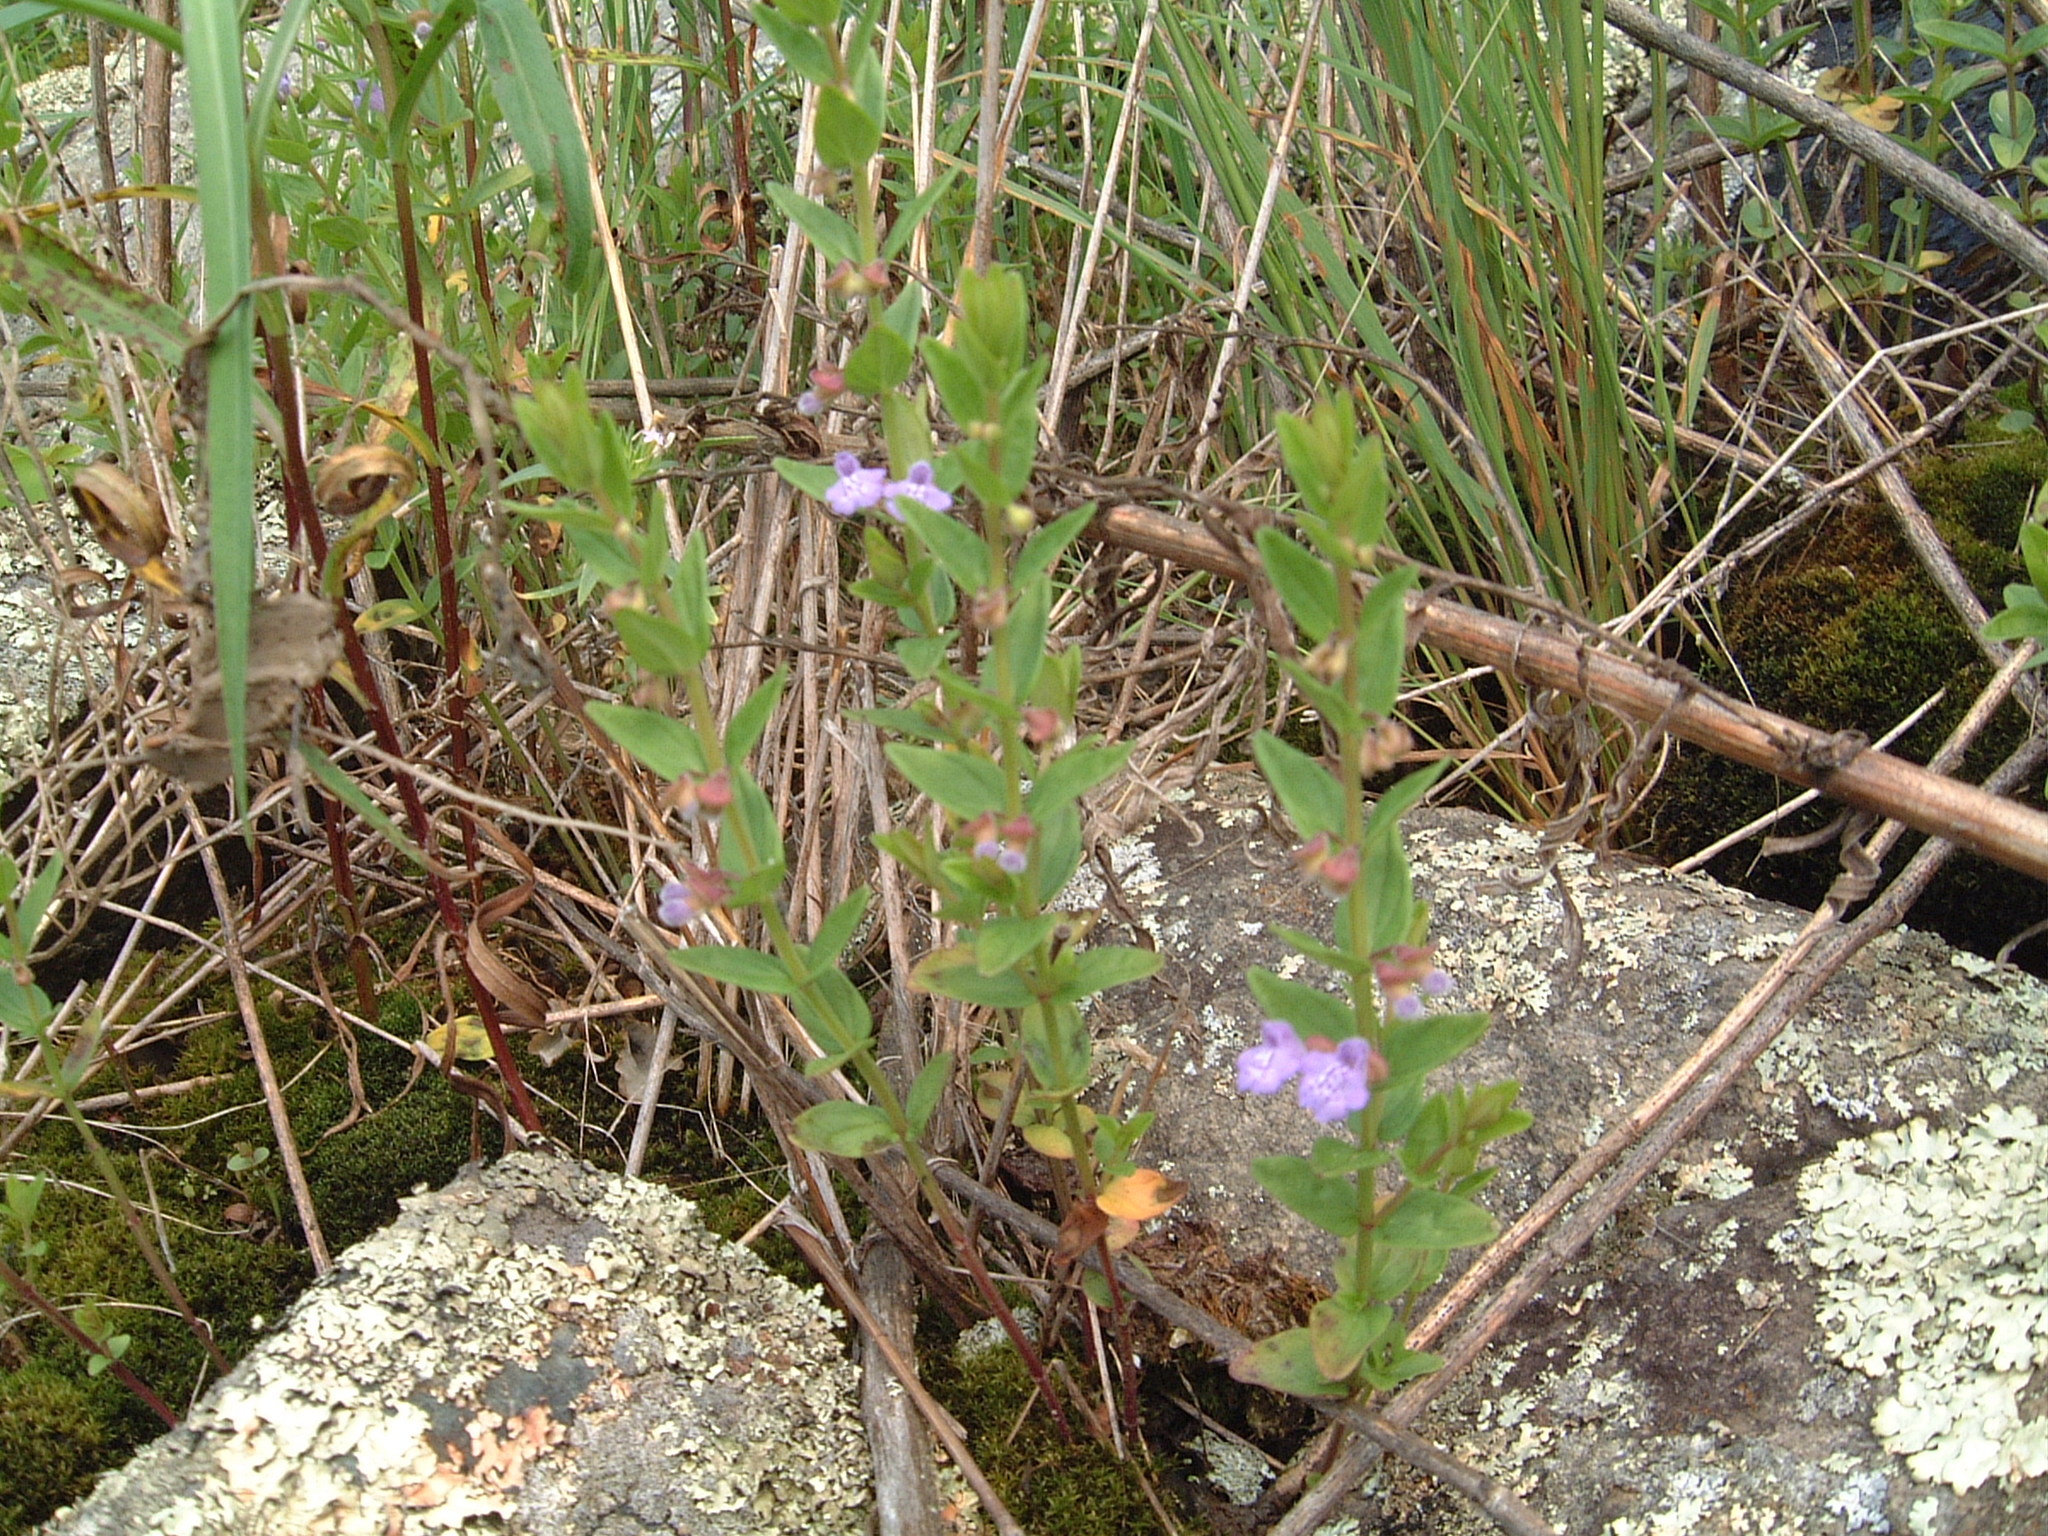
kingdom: Plantae
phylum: Tracheophyta
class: Magnoliopsida
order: Lamiales
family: Lamiaceae
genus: Scutellaria
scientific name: Scutellaria parvula
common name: Little scullcap
